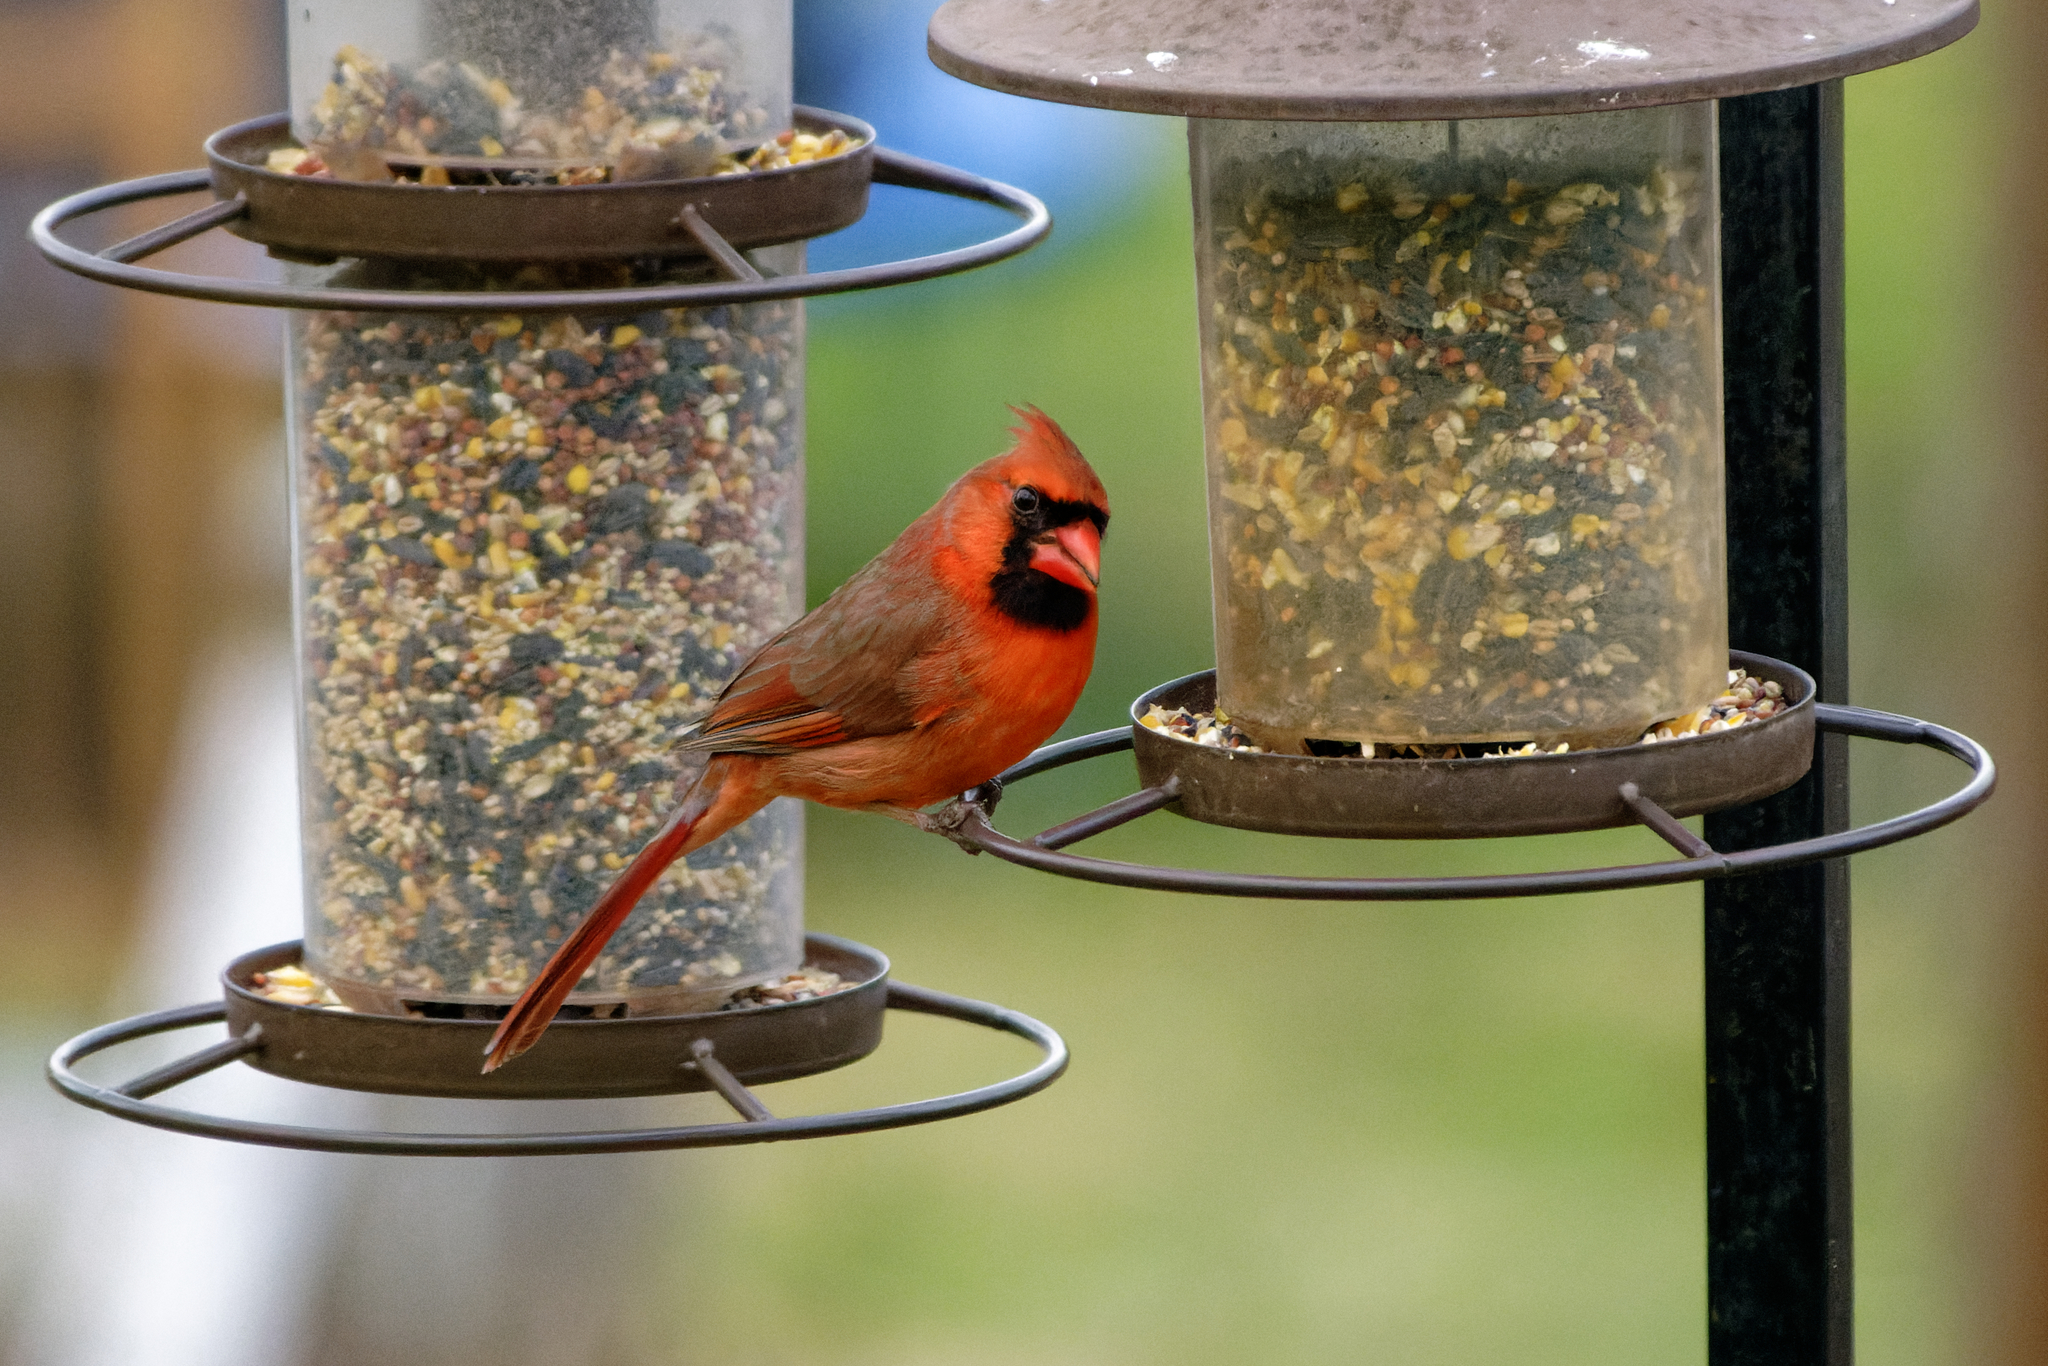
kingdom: Animalia
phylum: Chordata
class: Aves
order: Passeriformes
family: Cardinalidae
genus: Cardinalis
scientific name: Cardinalis cardinalis
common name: Northern cardinal
